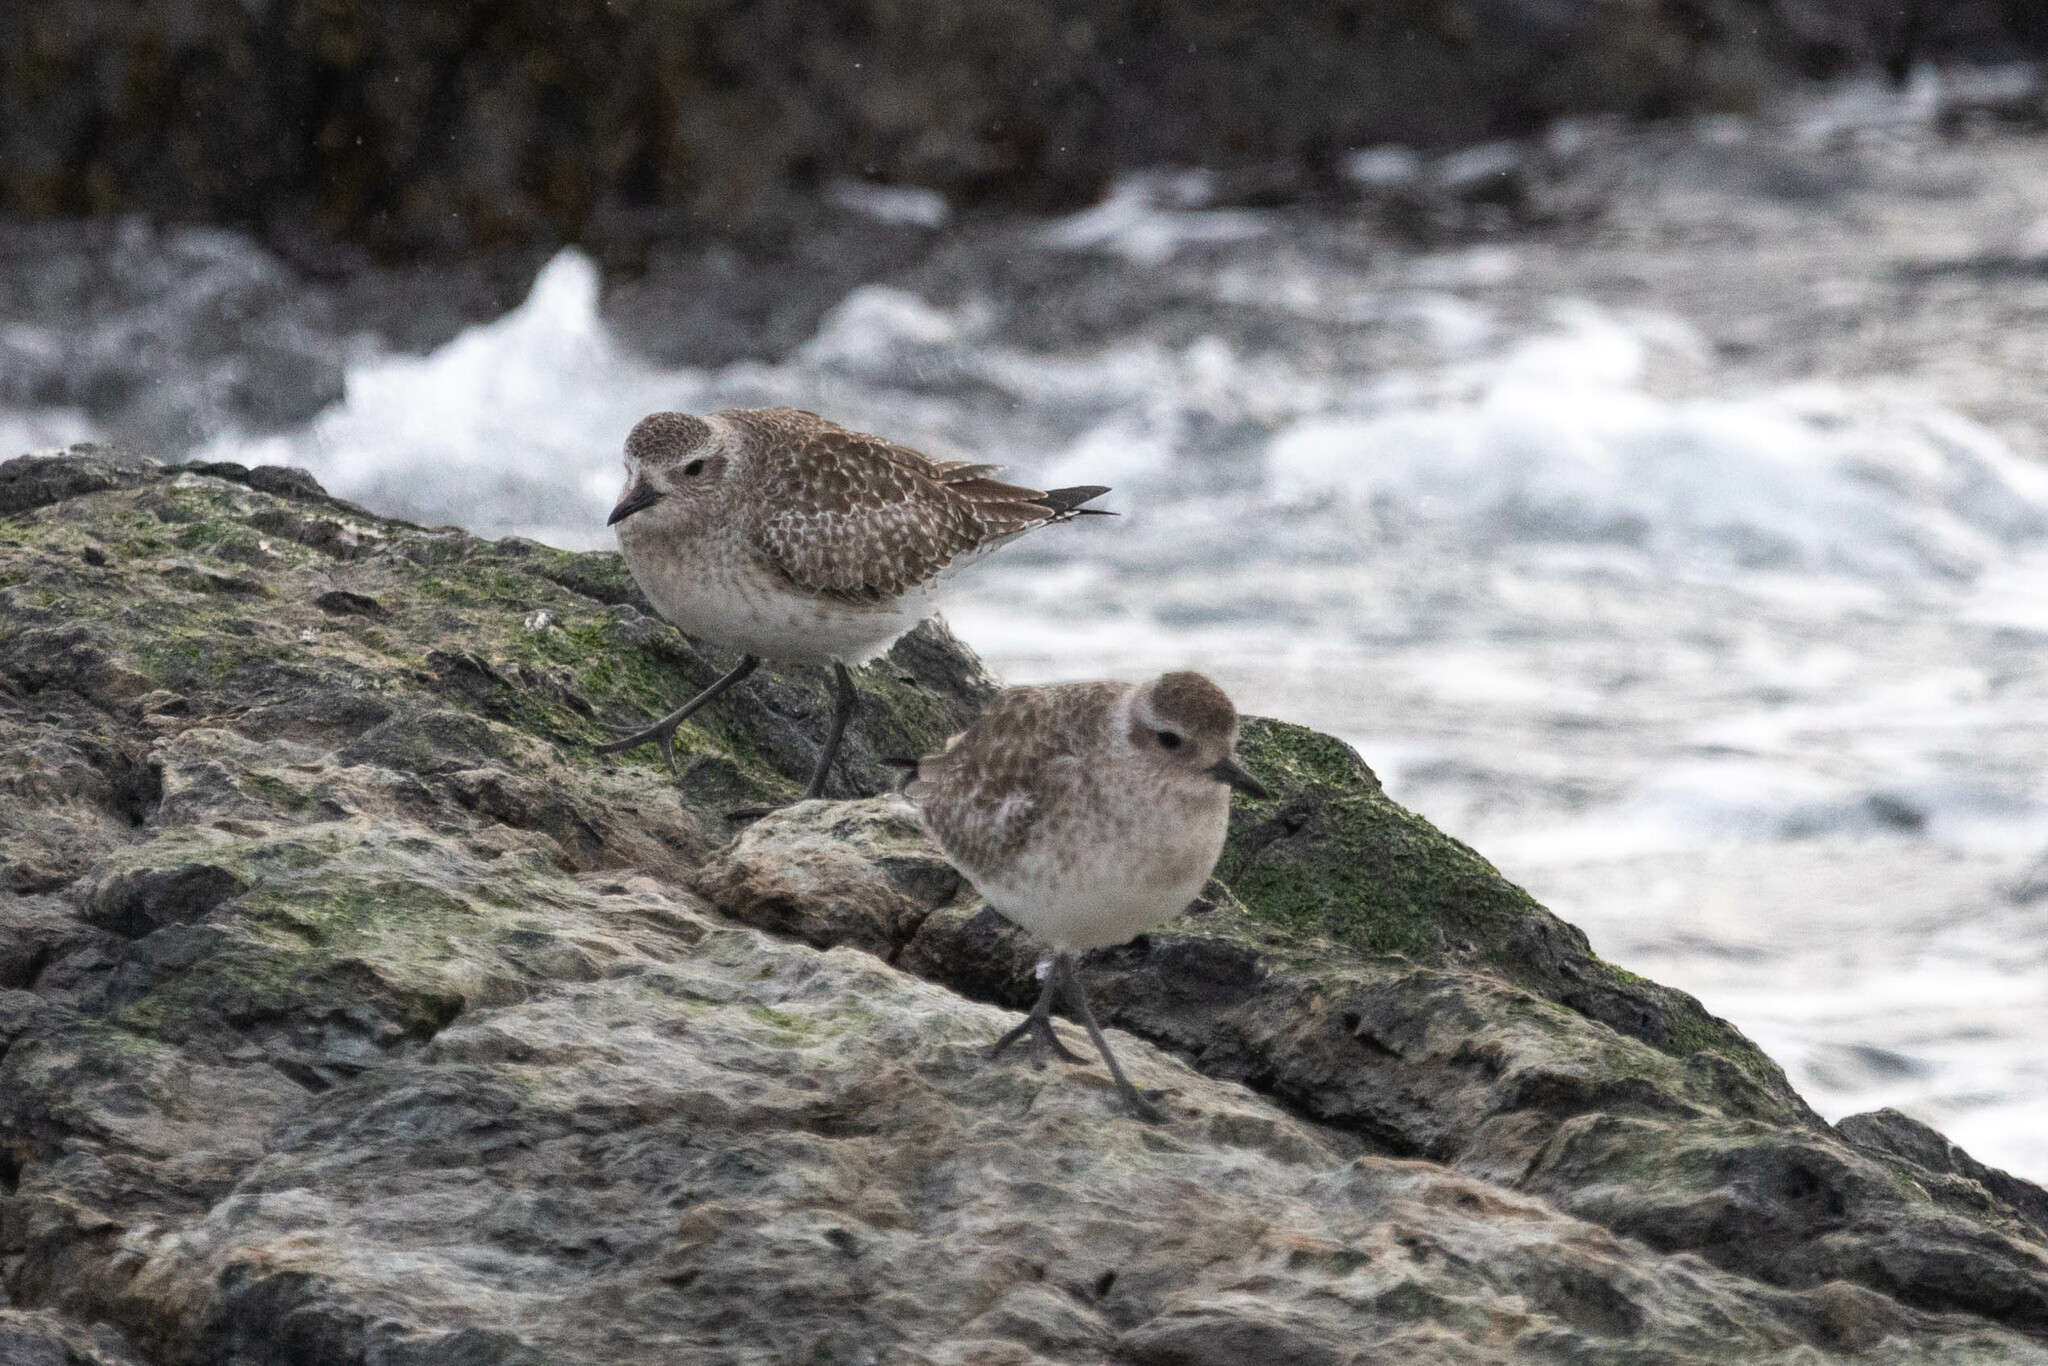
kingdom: Animalia
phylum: Chordata
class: Aves
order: Charadriiformes
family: Charadriidae
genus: Pluvialis
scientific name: Pluvialis squatarola
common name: Grey plover
